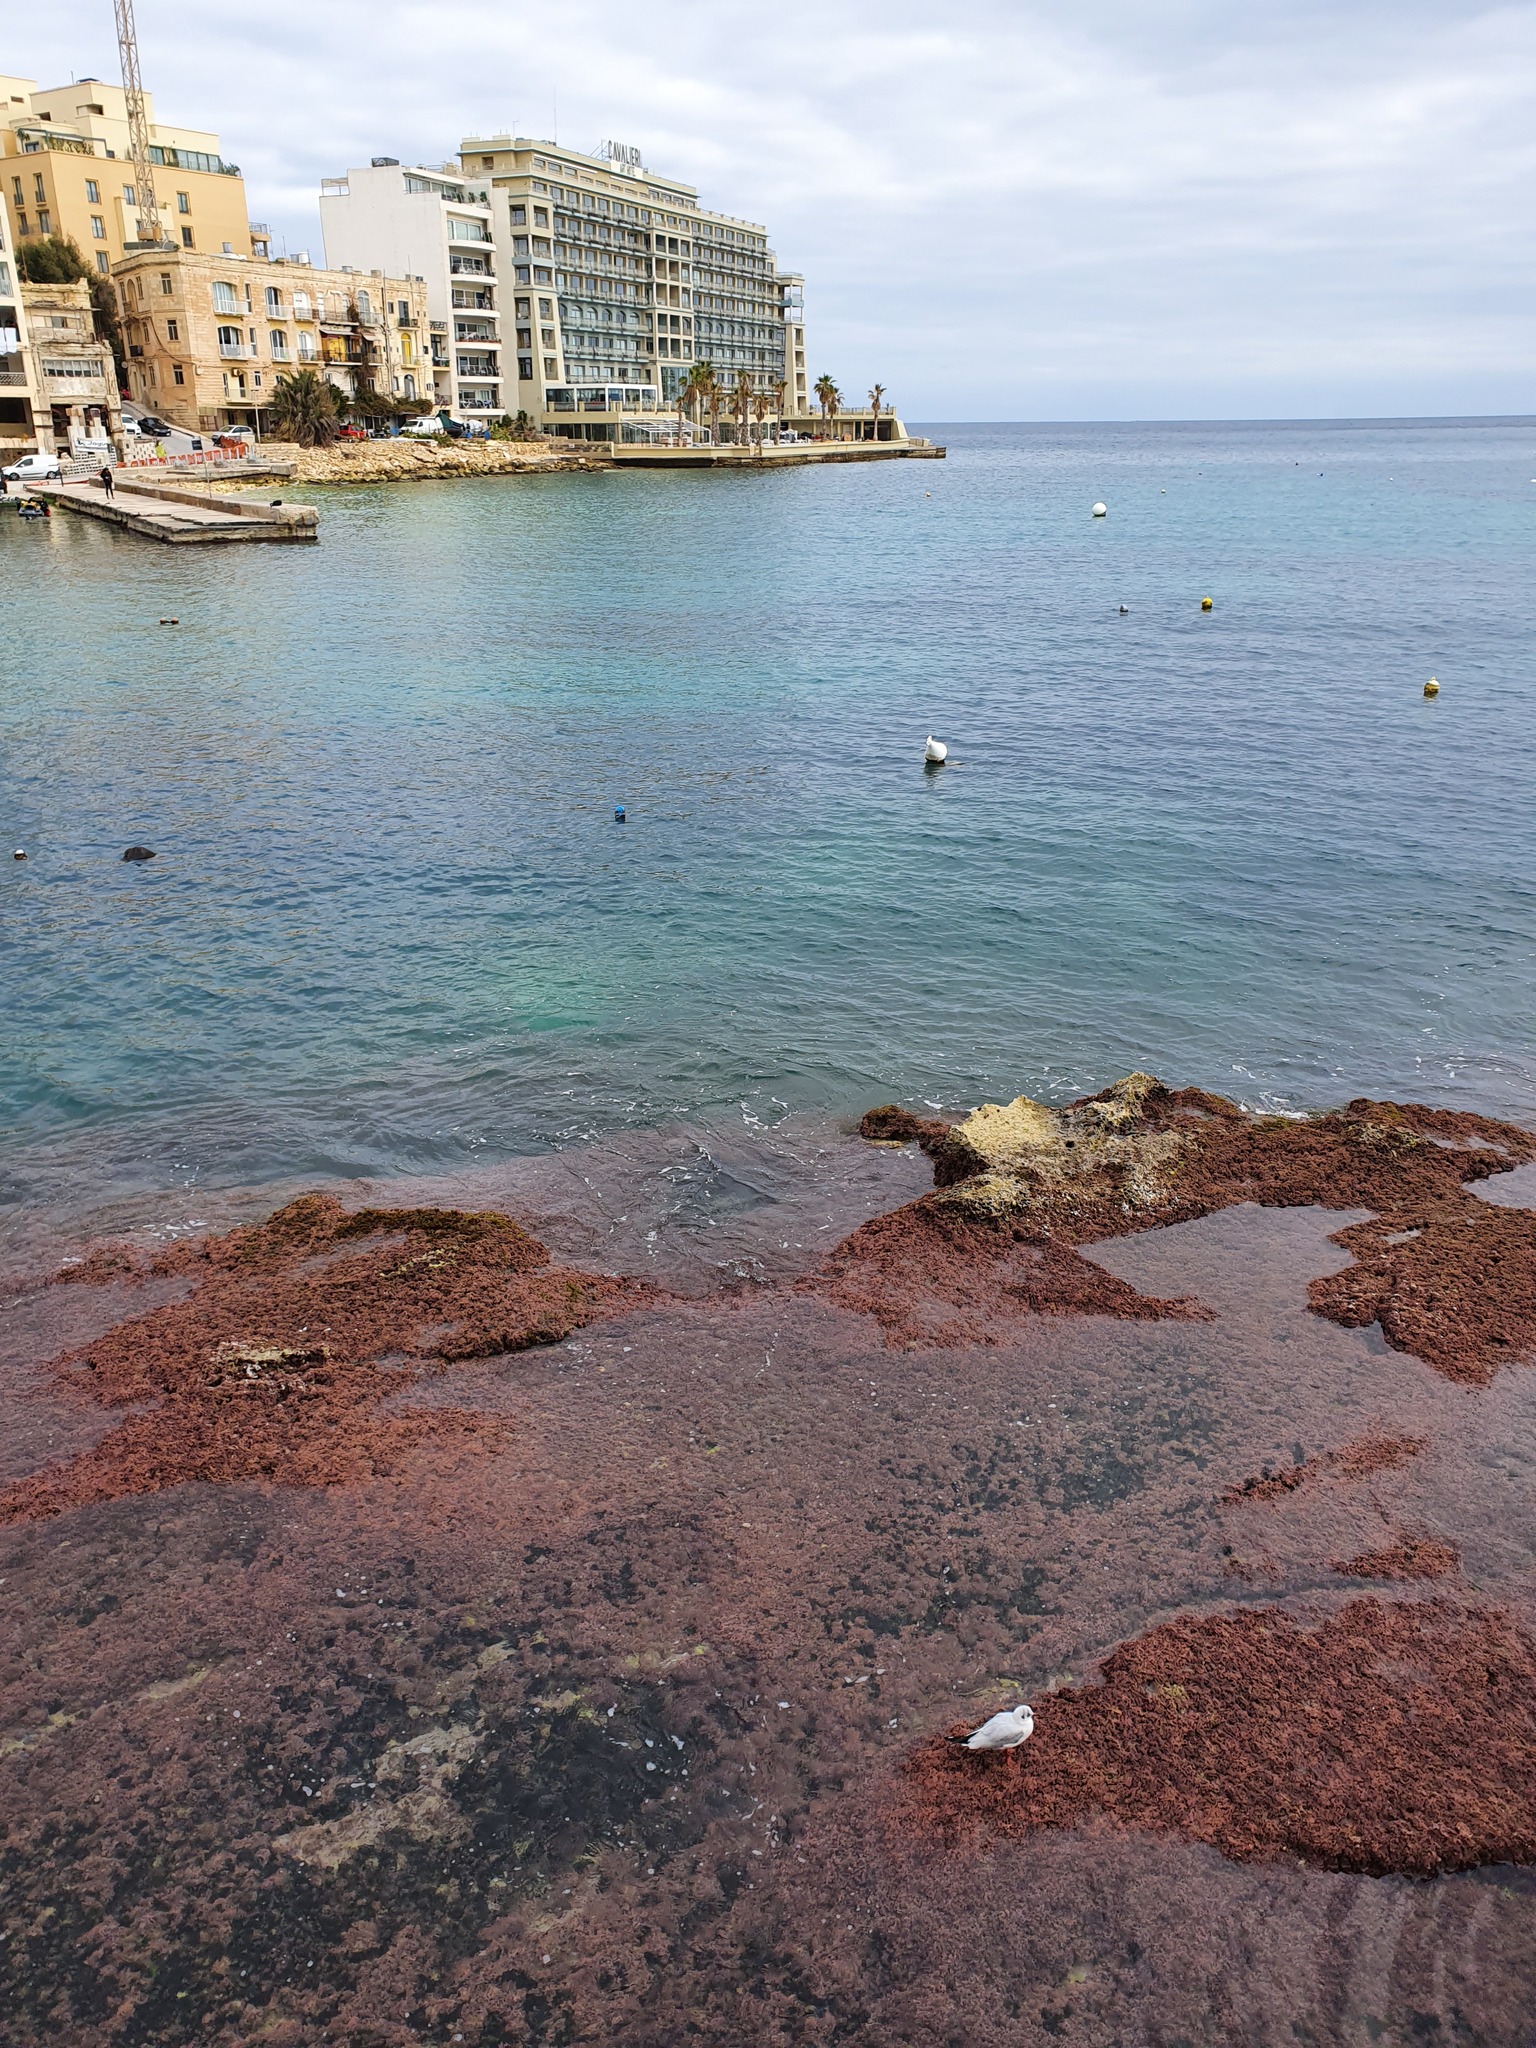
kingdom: Animalia
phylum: Chordata
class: Aves
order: Charadriiformes
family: Laridae
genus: Chroicocephalus
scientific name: Chroicocephalus ridibundus
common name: Black-headed gull
